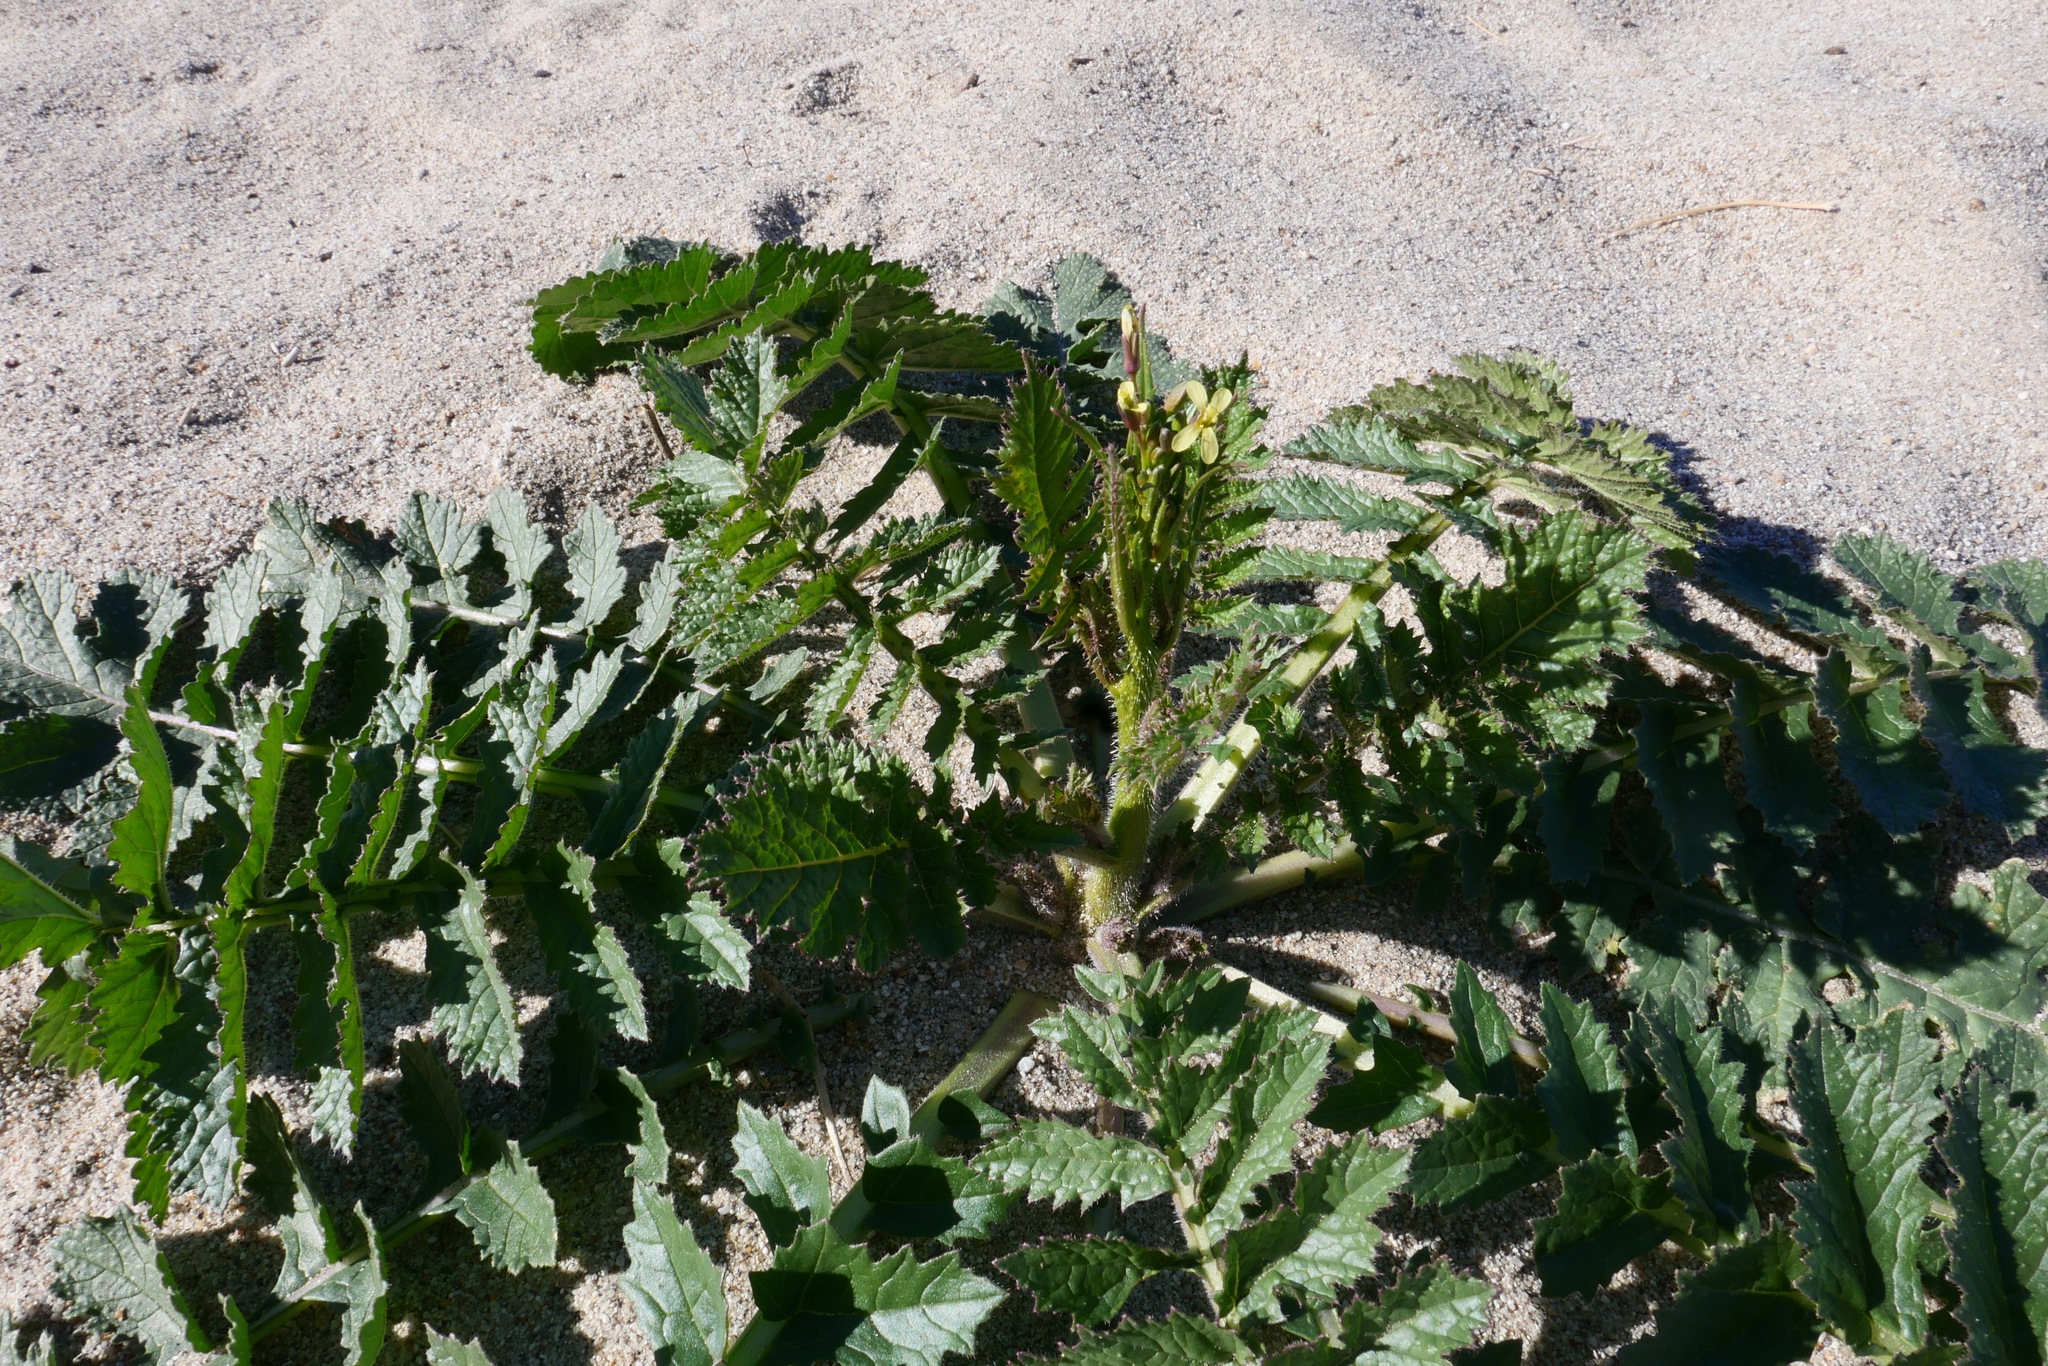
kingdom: Plantae
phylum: Tracheophyta
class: Magnoliopsida
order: Brassicales
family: Brassicaceae
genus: Brassica
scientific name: Brassica tournefortii
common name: Pale cabbage
